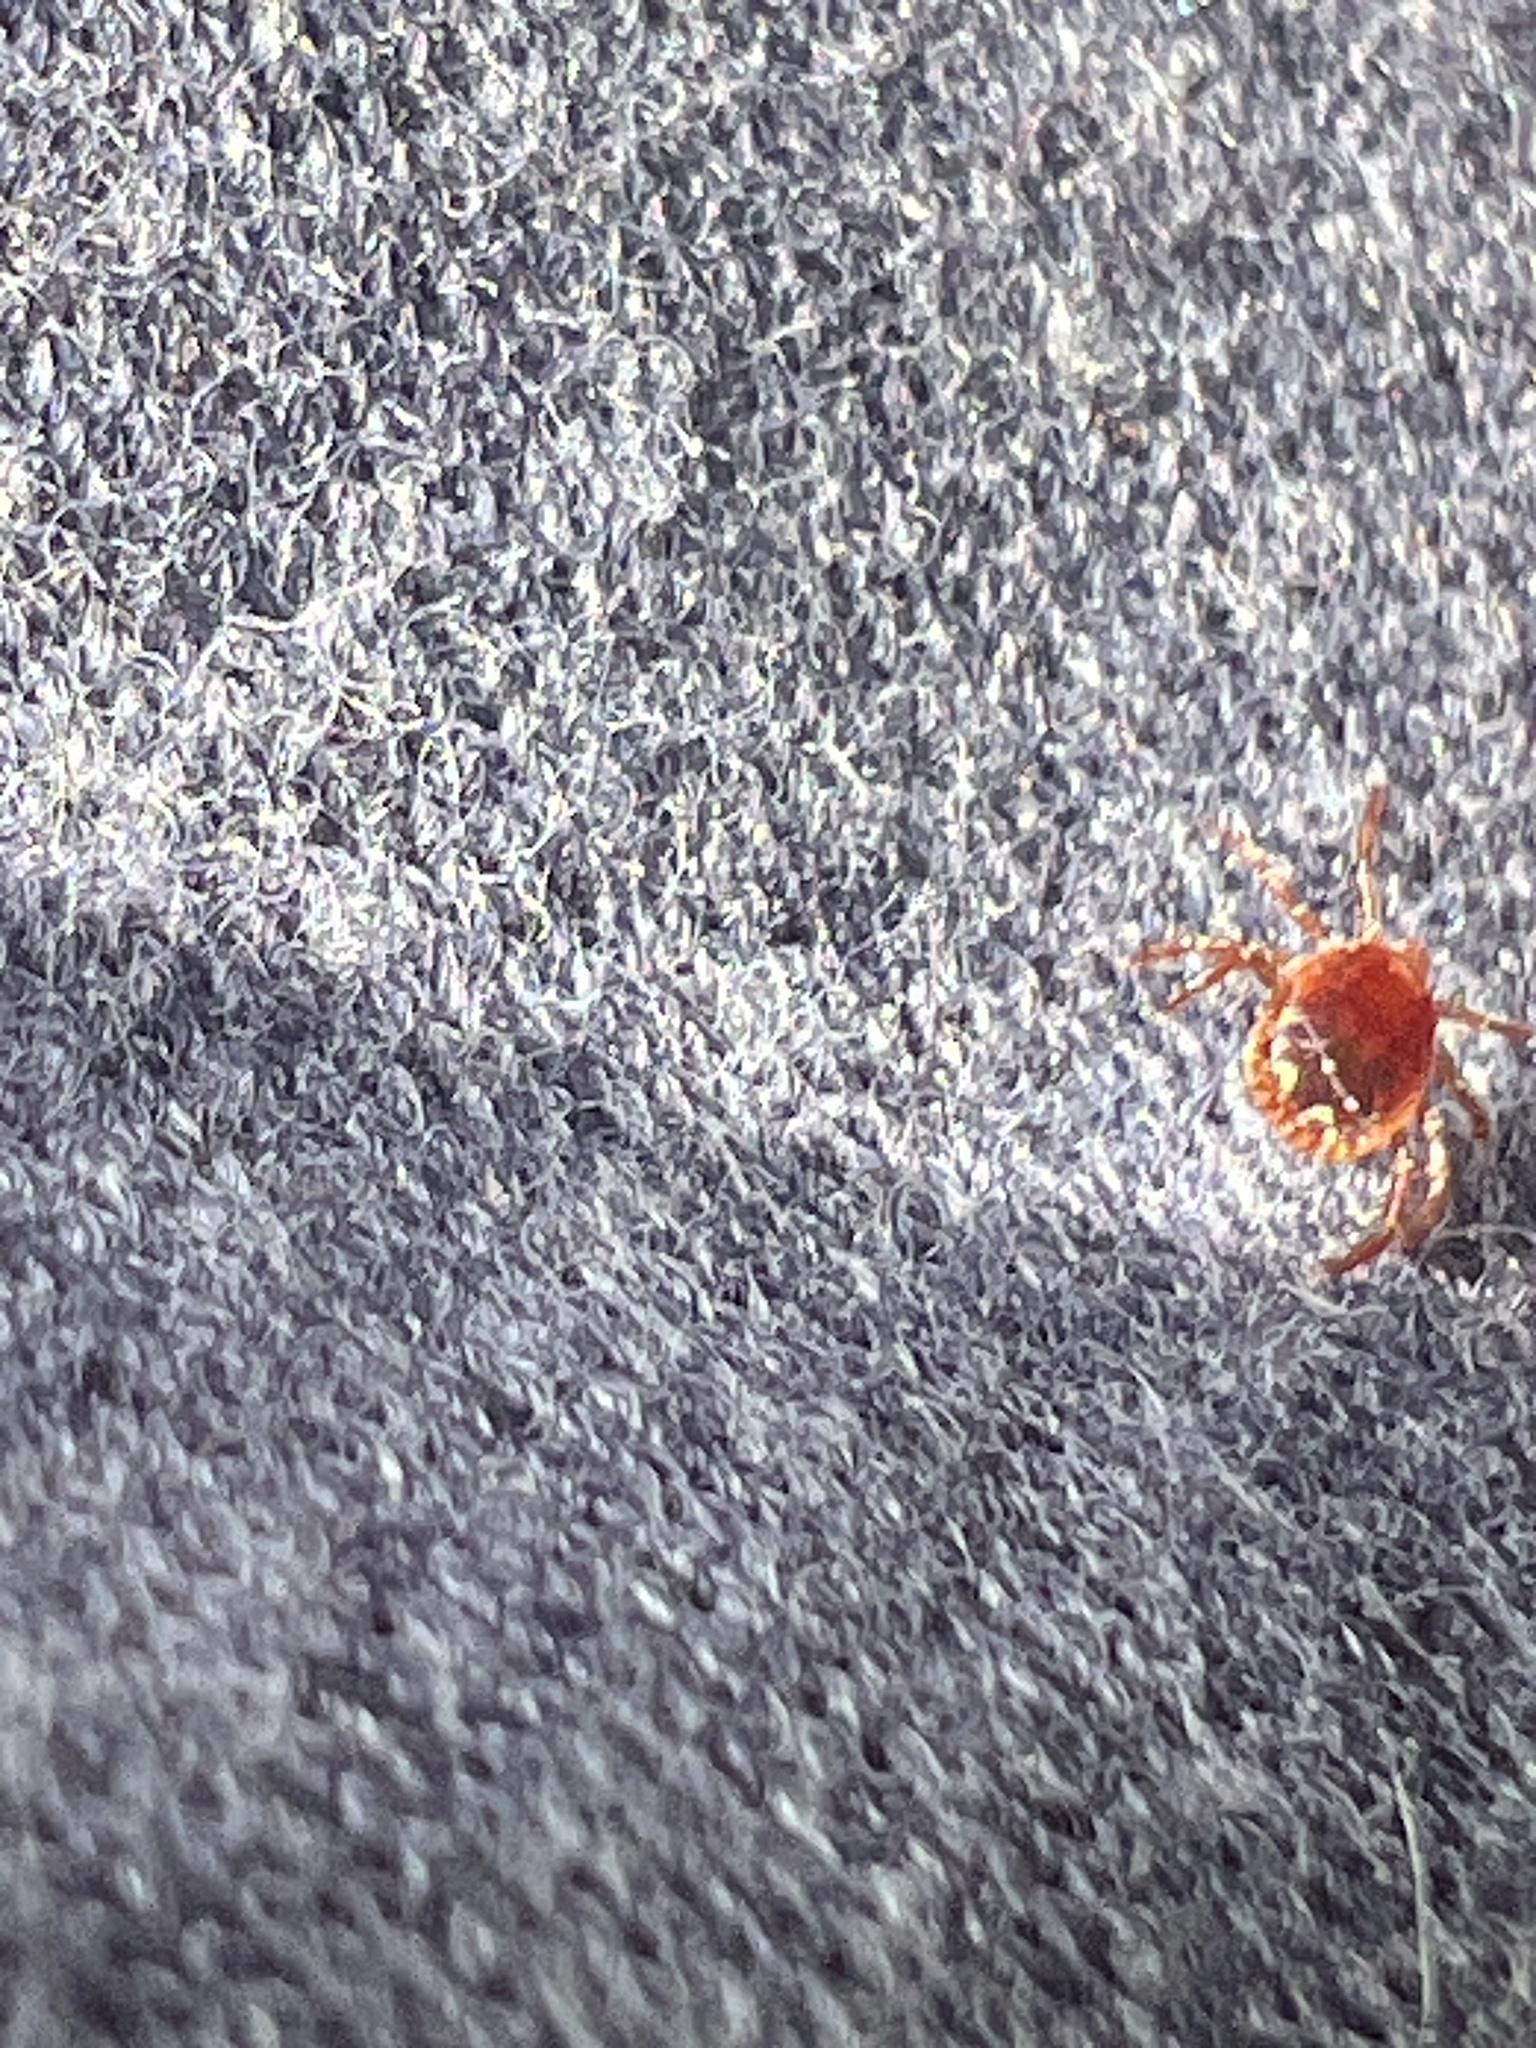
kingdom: Animalia
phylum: Arthropoda
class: Arachnida
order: Ixodida
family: Ixodidae
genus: Amblyomma
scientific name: Amblyomma americanum
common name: Lone star tick
